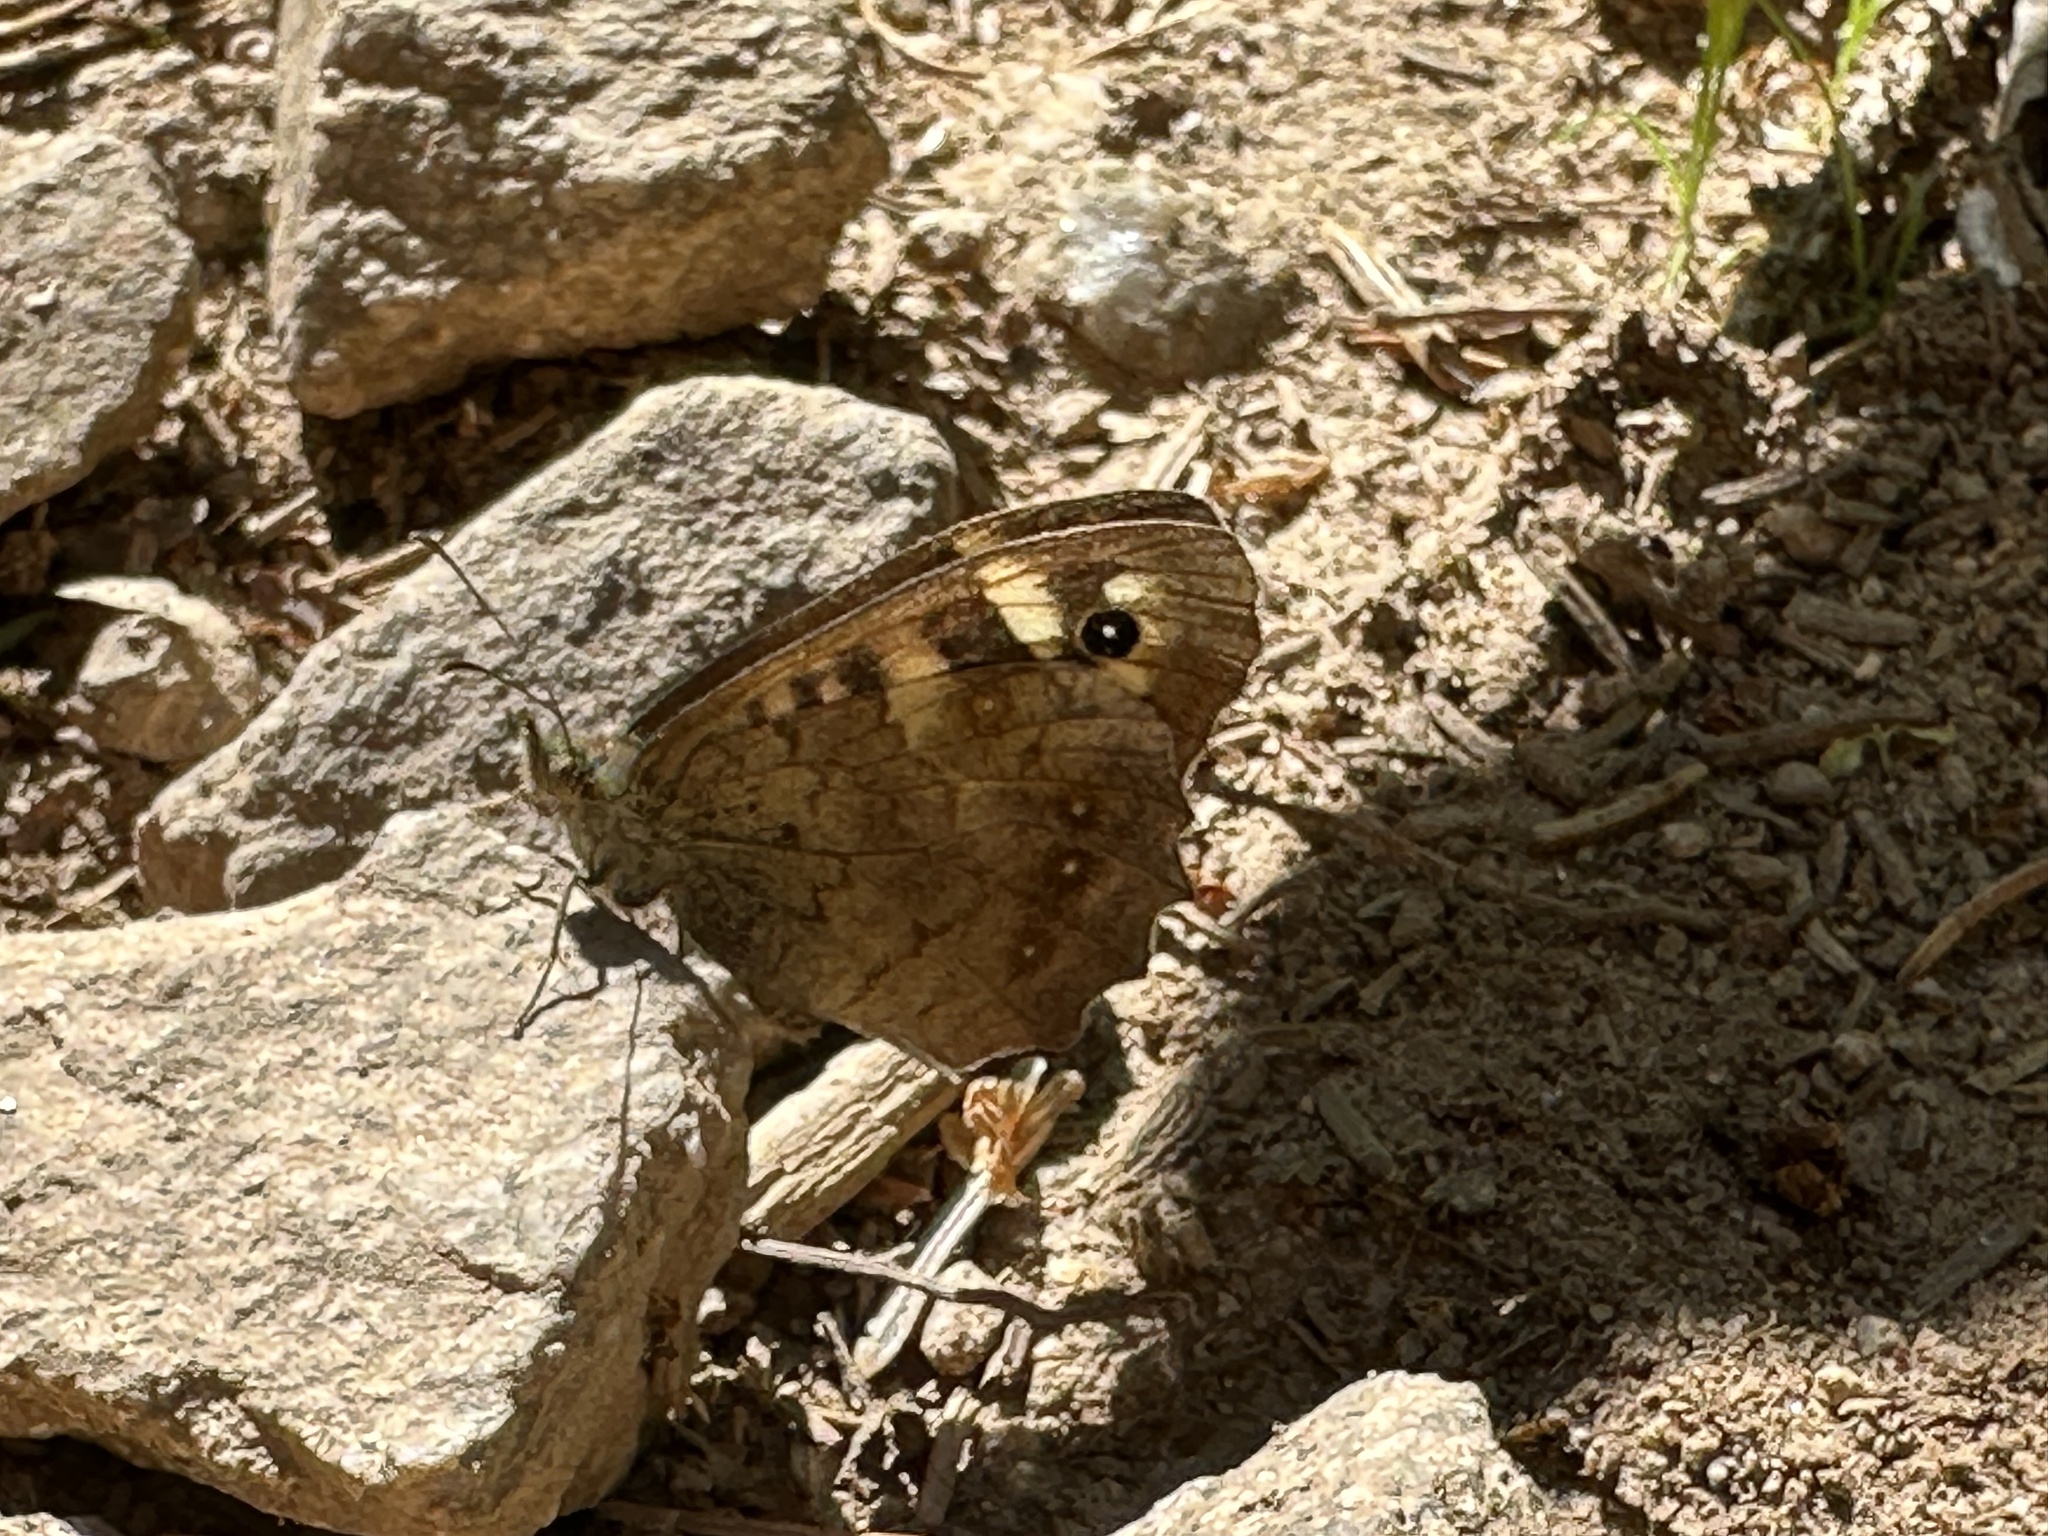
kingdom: Animalia
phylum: Arthropoda
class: Insecta
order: Lepidoptera
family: Nymphalidae
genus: Pararge
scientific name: Pararge aegeria
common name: Speckled wood
